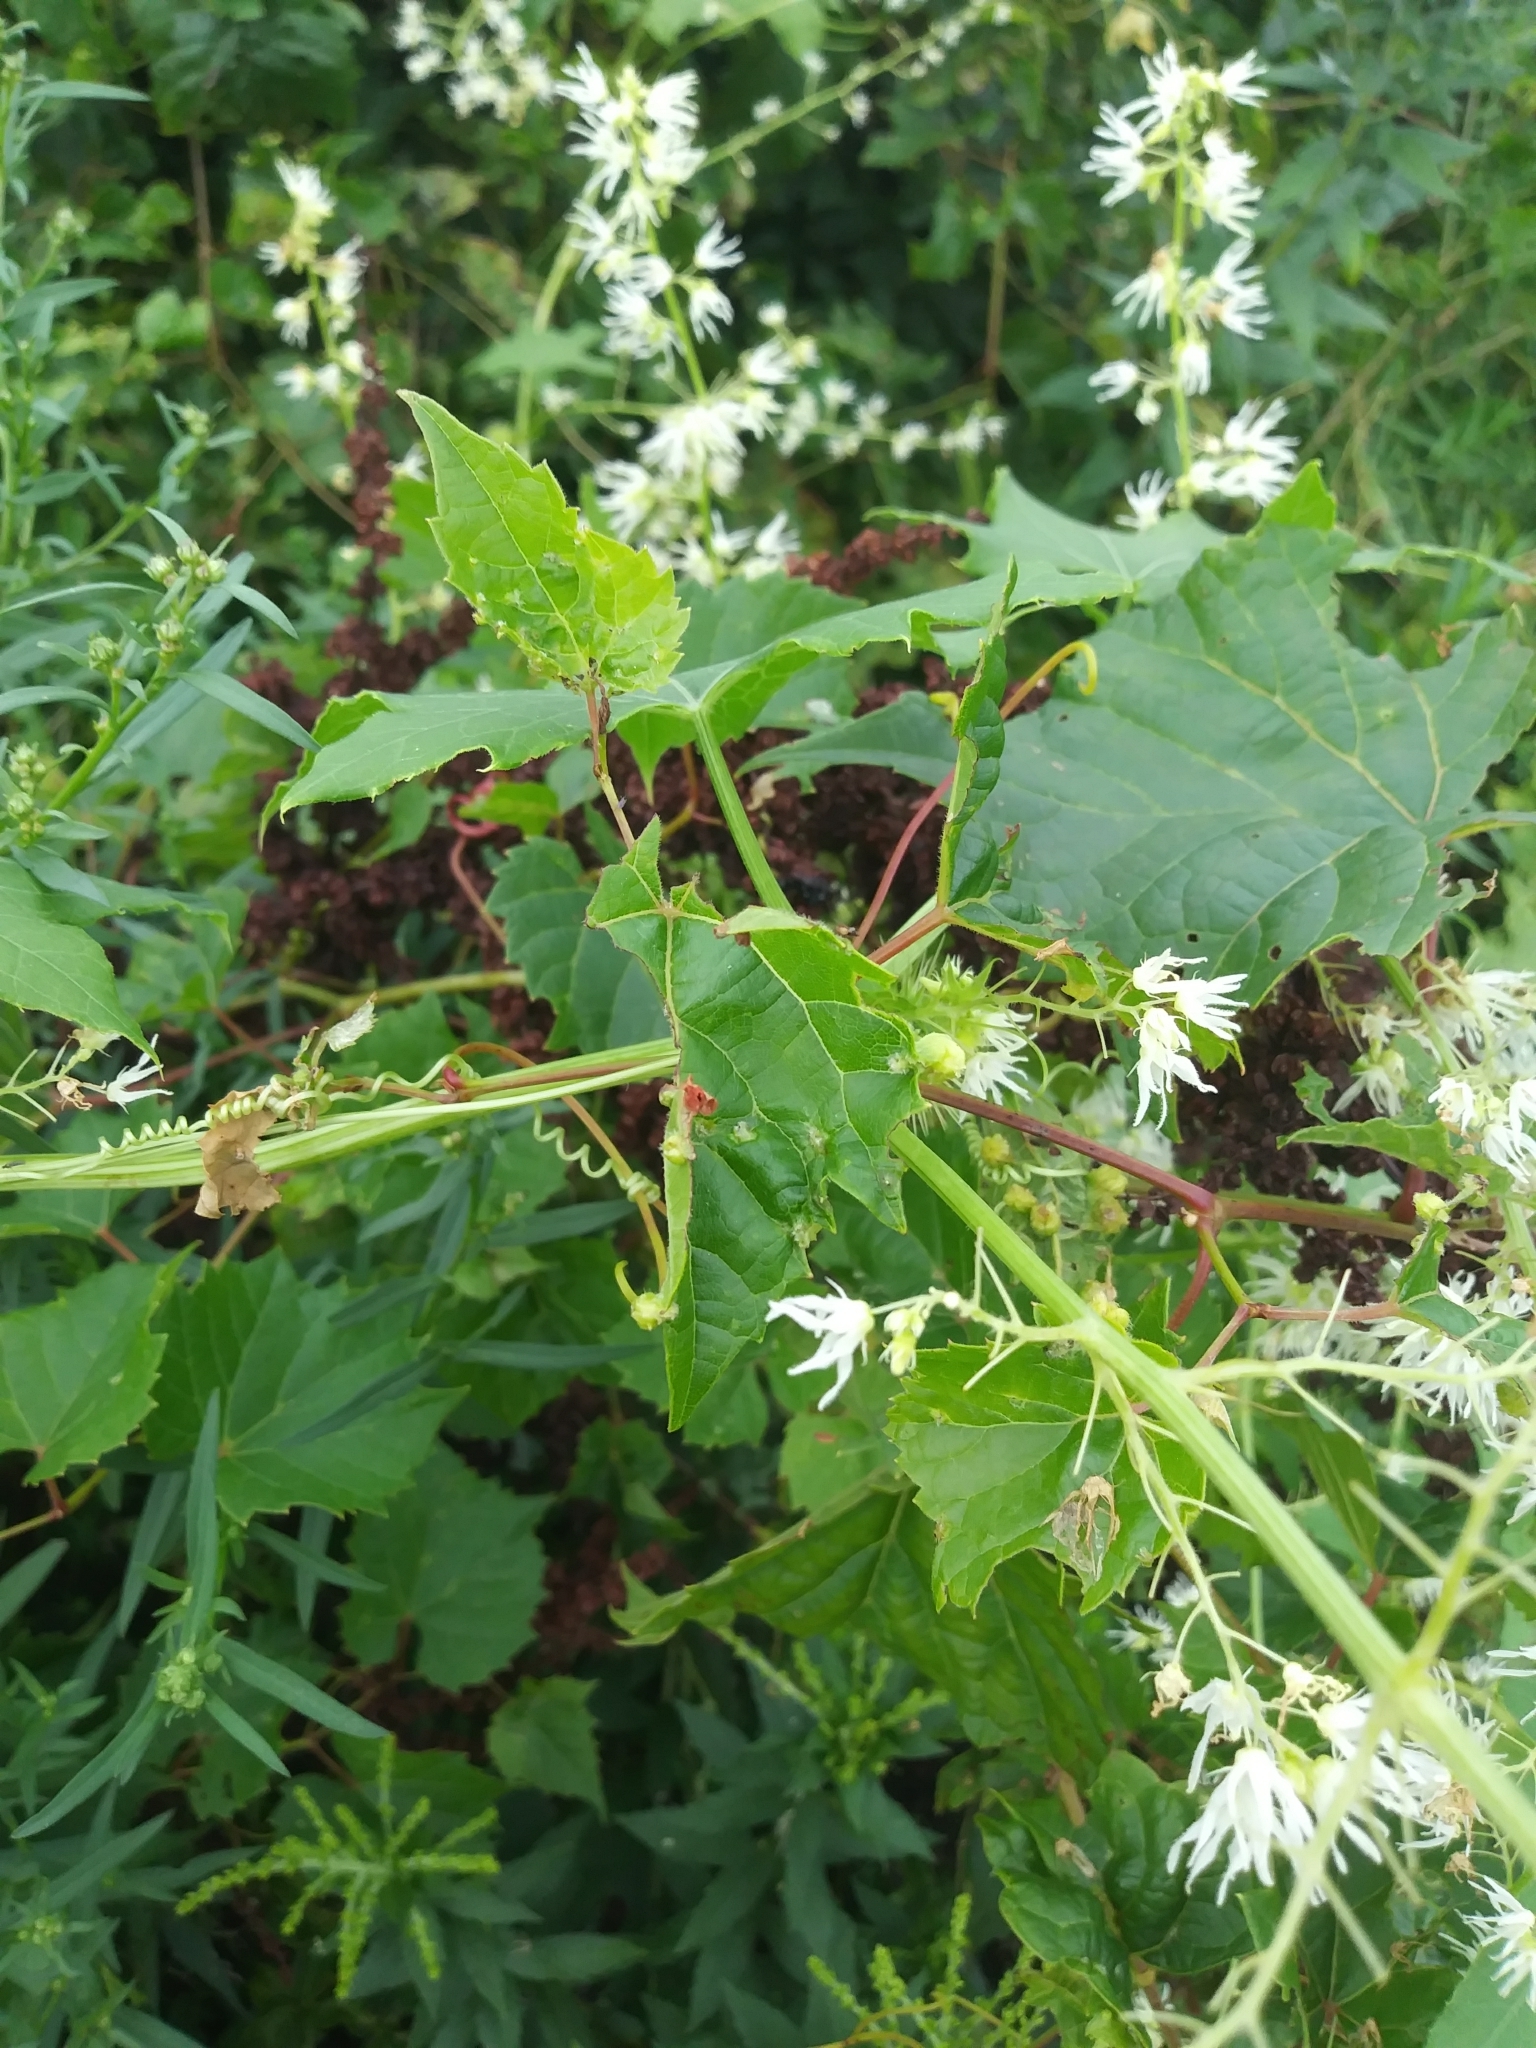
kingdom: Plantae
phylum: Tracheophyta
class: Magnoliopsida
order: Cucurbitales
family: Cucurbitaceae
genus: Echinocystis
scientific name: Echinocystis lobata
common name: Wild cucumber
